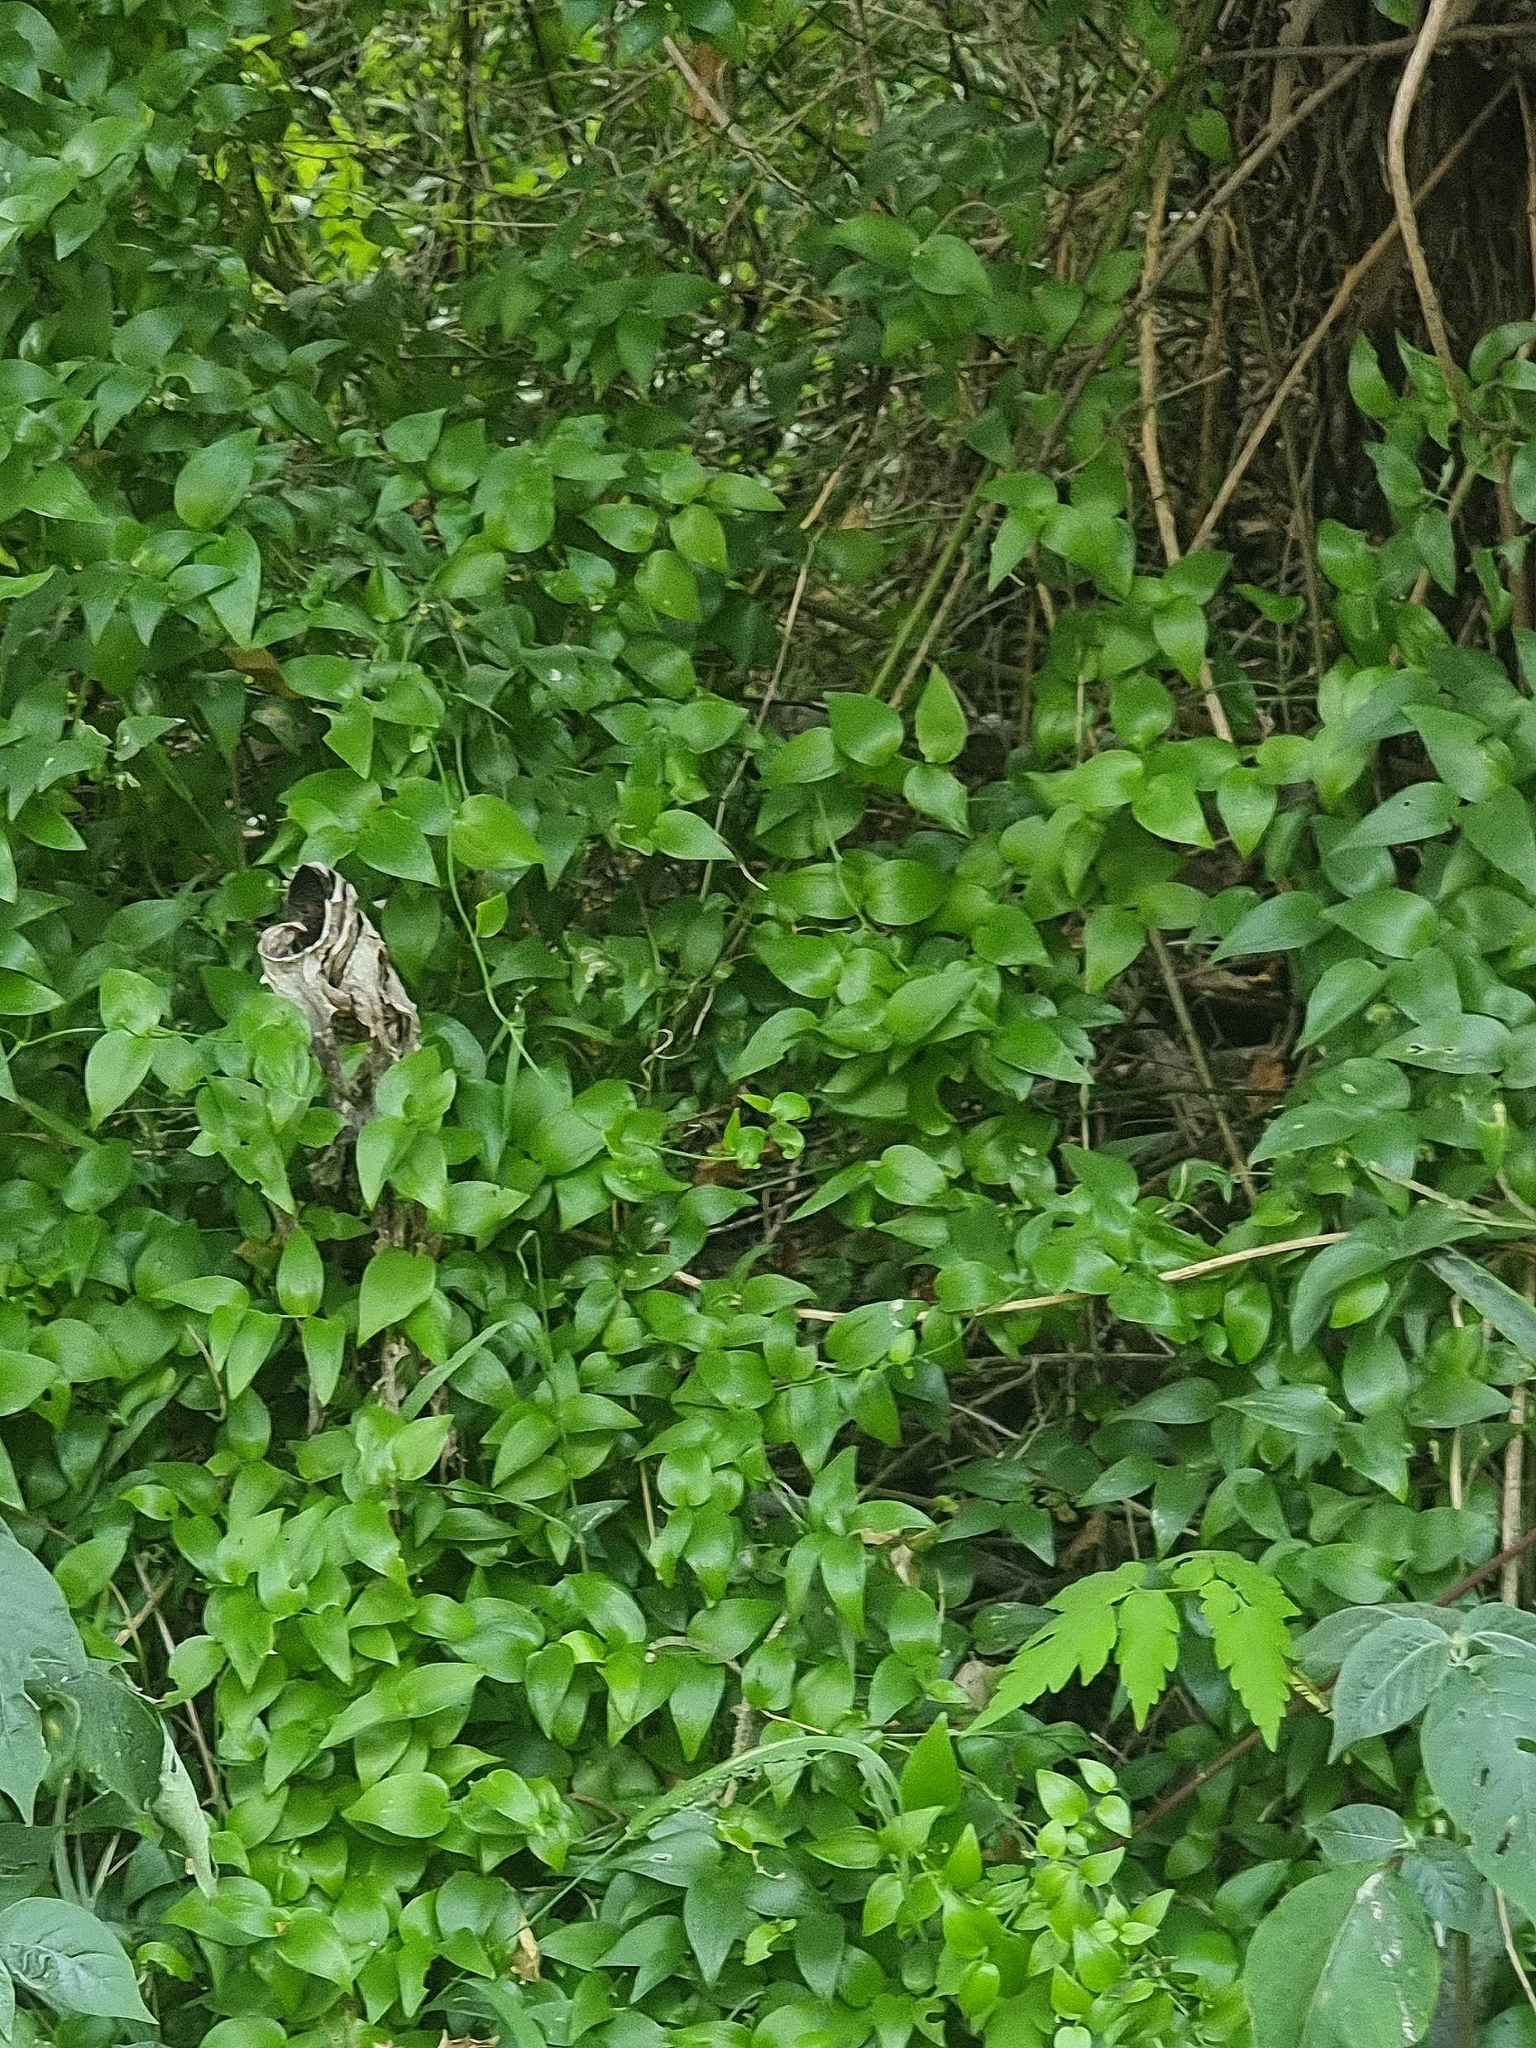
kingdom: Plantae
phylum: Tracheophyta
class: Liliopsida
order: Asparagales
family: Asparagaceae
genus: Asparagus
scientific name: Asparagus asparagoides
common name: African asparagus fern
